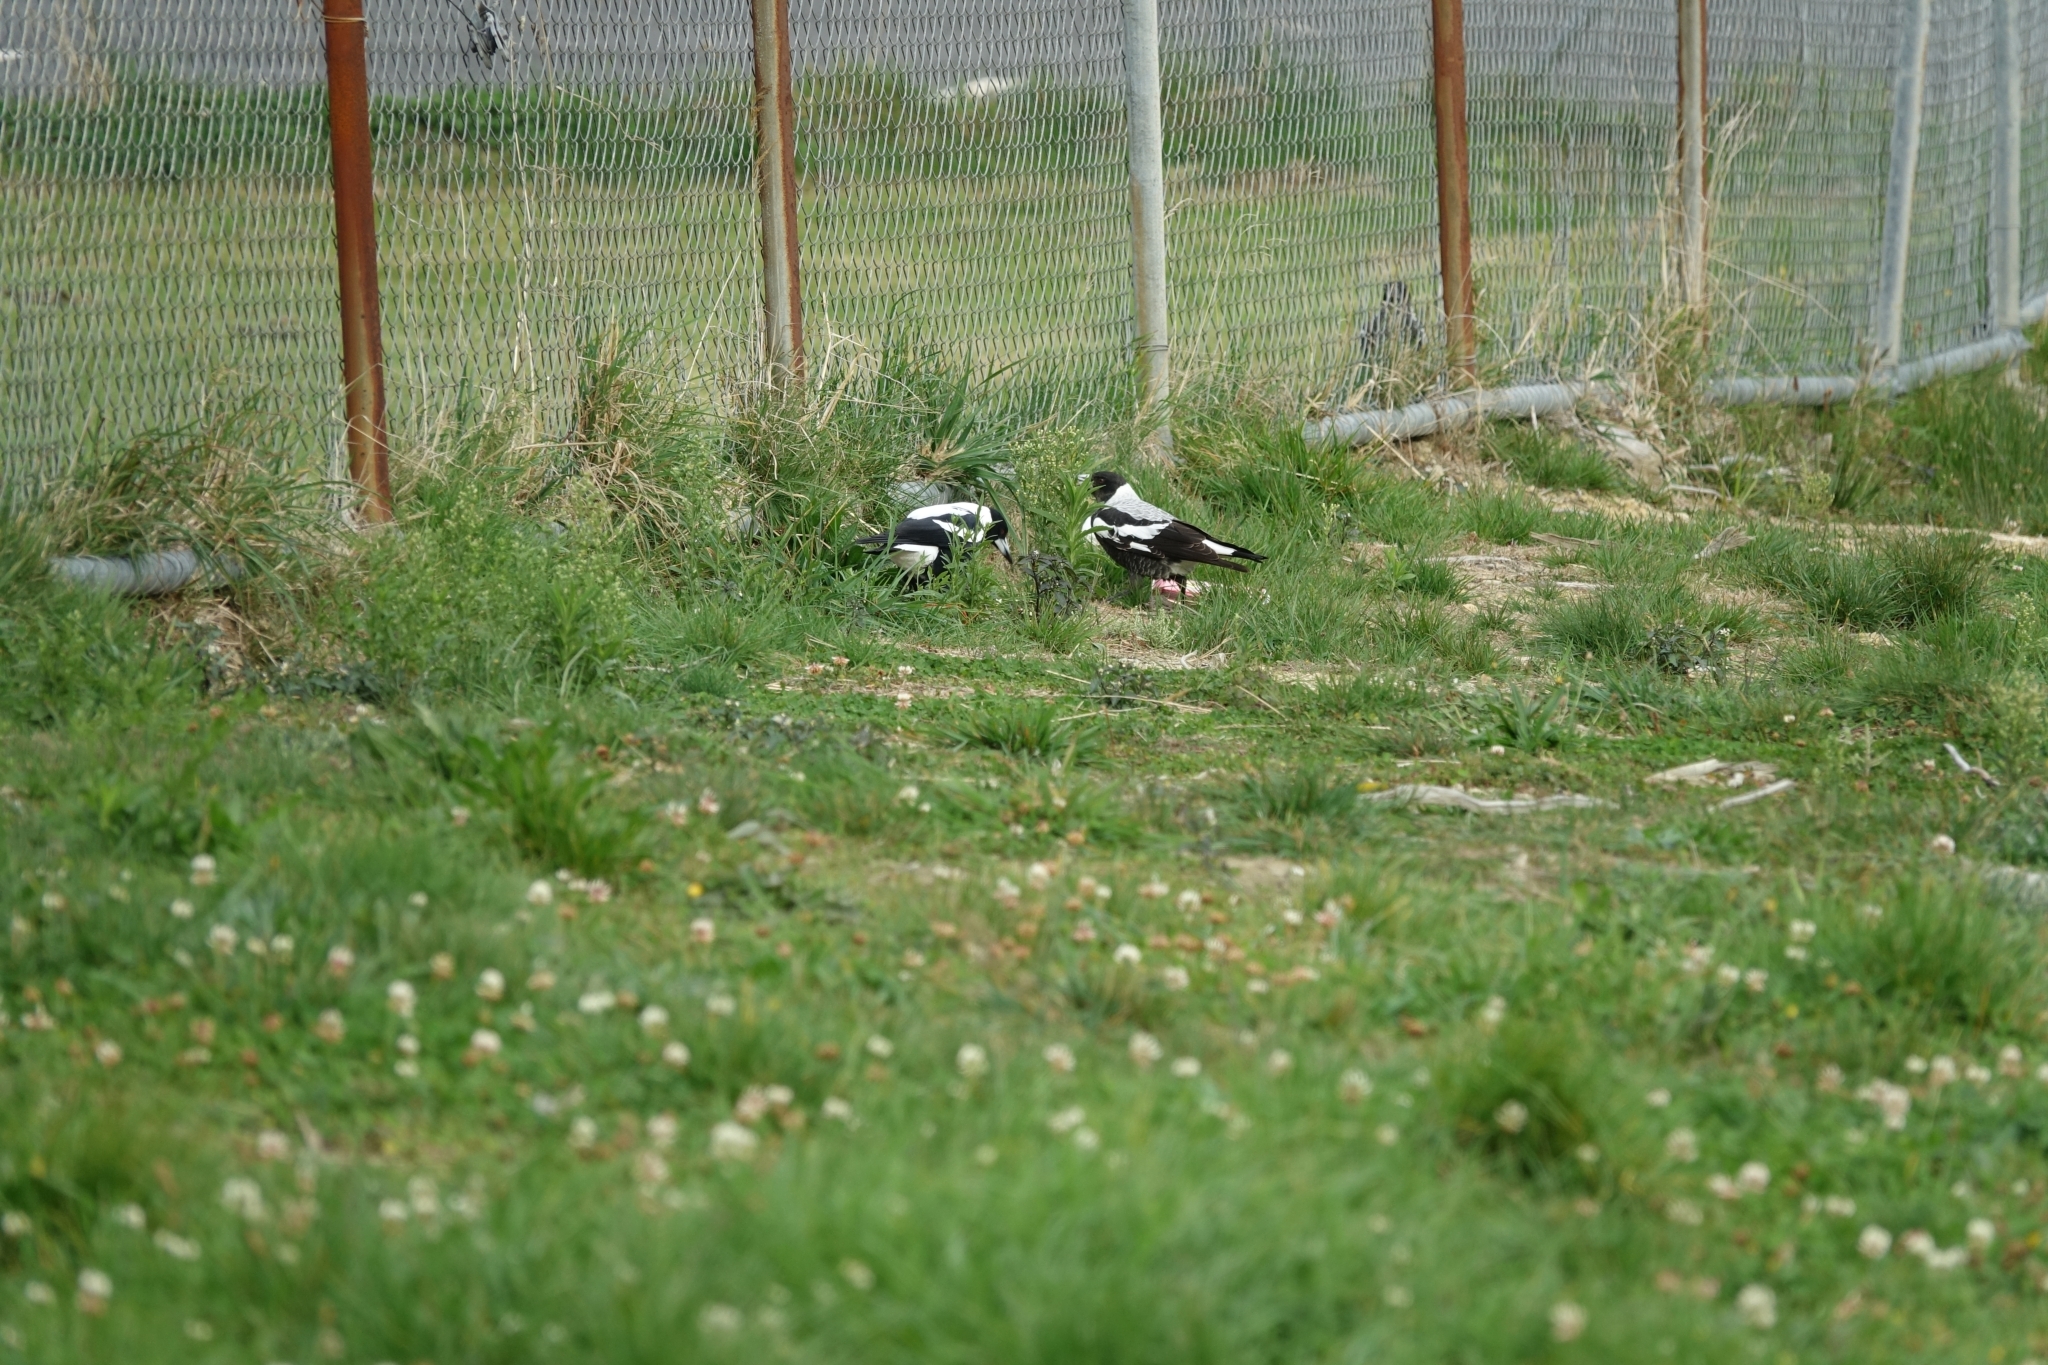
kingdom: Animalia
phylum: Chordata
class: Aves
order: Passeriformes
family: Cracticidae
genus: Gymnorhina
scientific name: Gymnorhina tibicen
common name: Australian magpie
